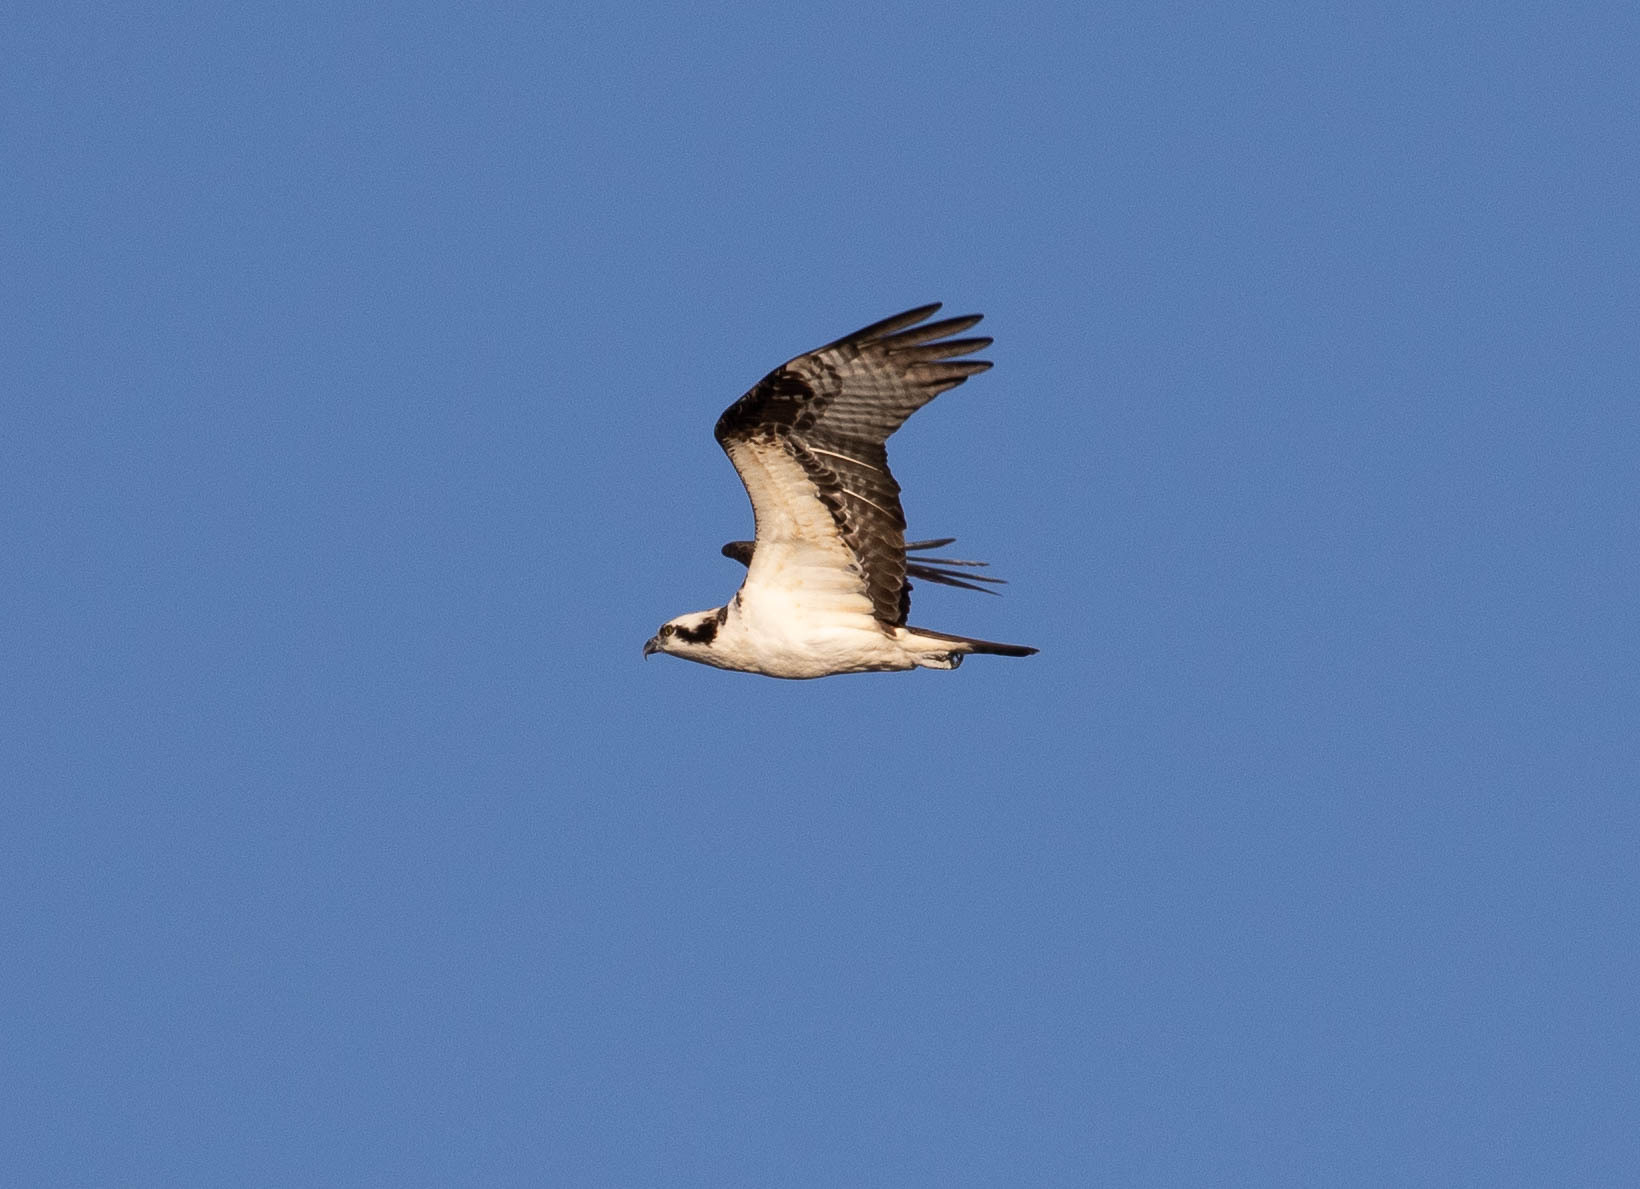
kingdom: Animalia
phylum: Chordata
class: Aves
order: Accipitriformes
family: Pandionidae
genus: Pandion
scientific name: Pandion haliaetus
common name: Osprey
